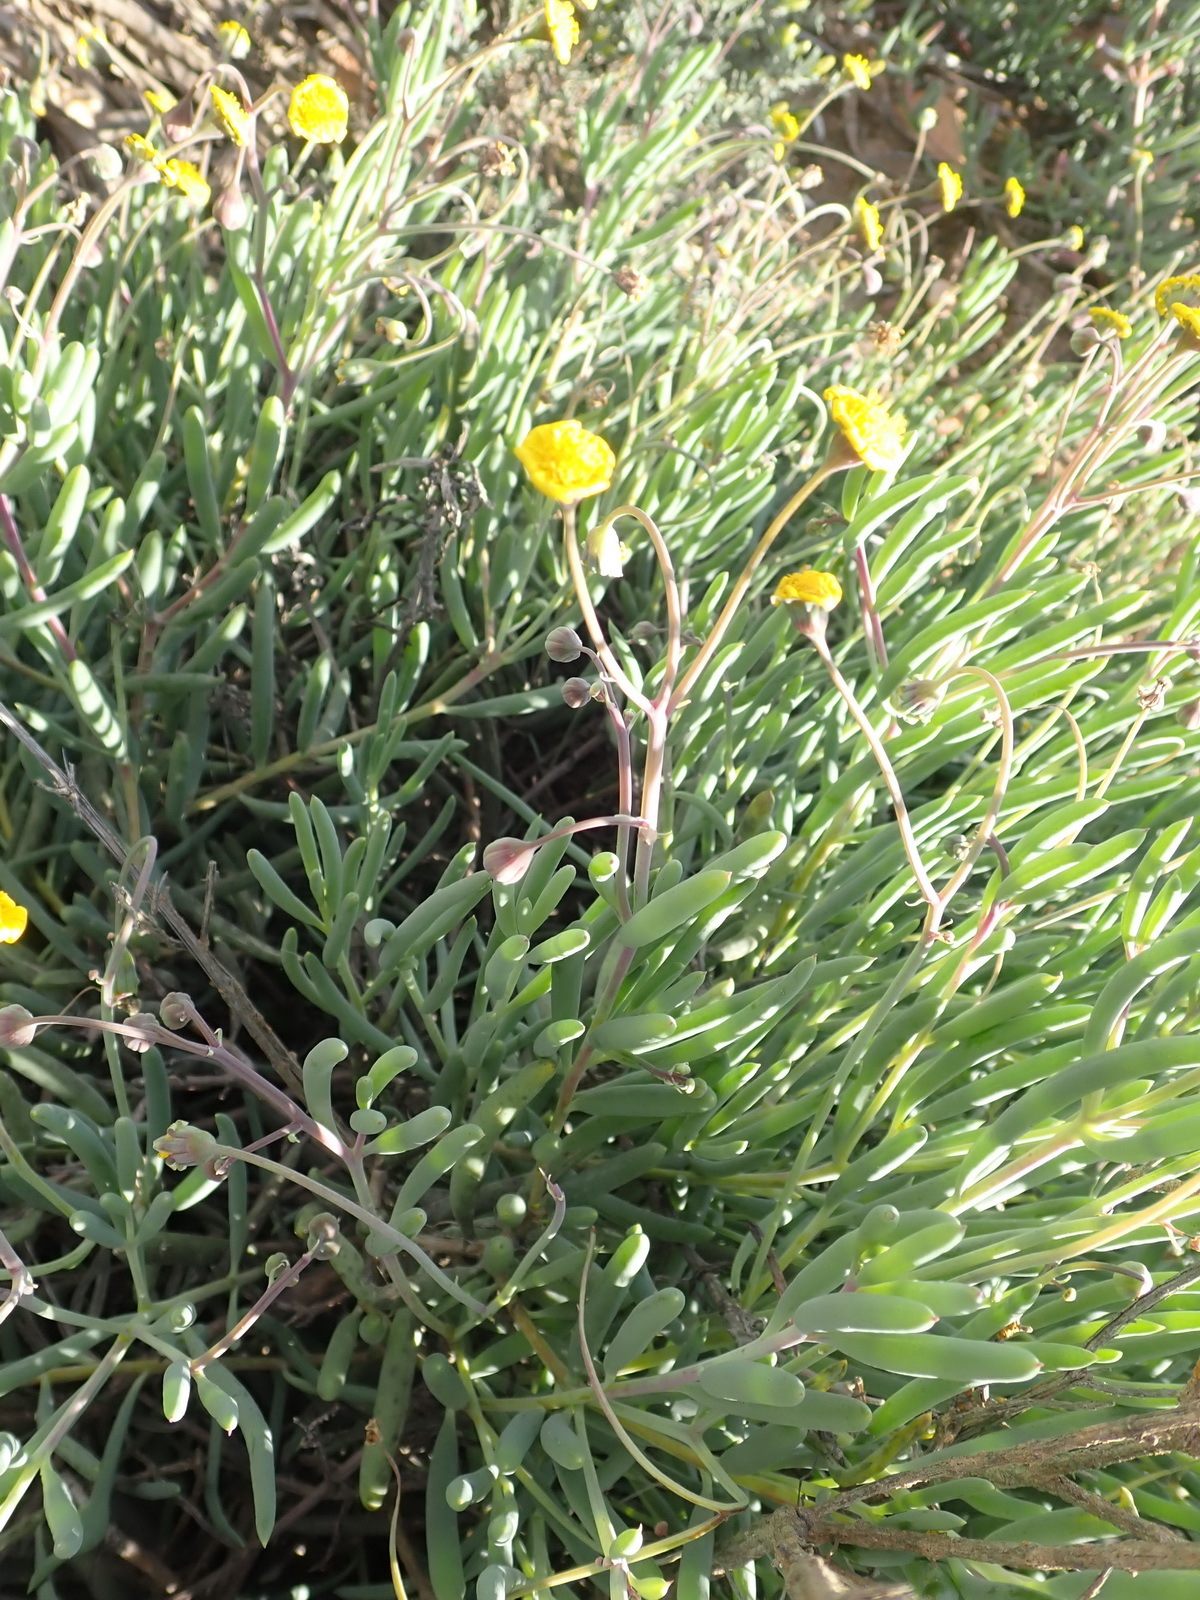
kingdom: Plantae
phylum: Tracheophyta
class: Magnoliopsida
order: Asterales
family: Asteraceae
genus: Crassothonna
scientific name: Crassothonna cacalioides
